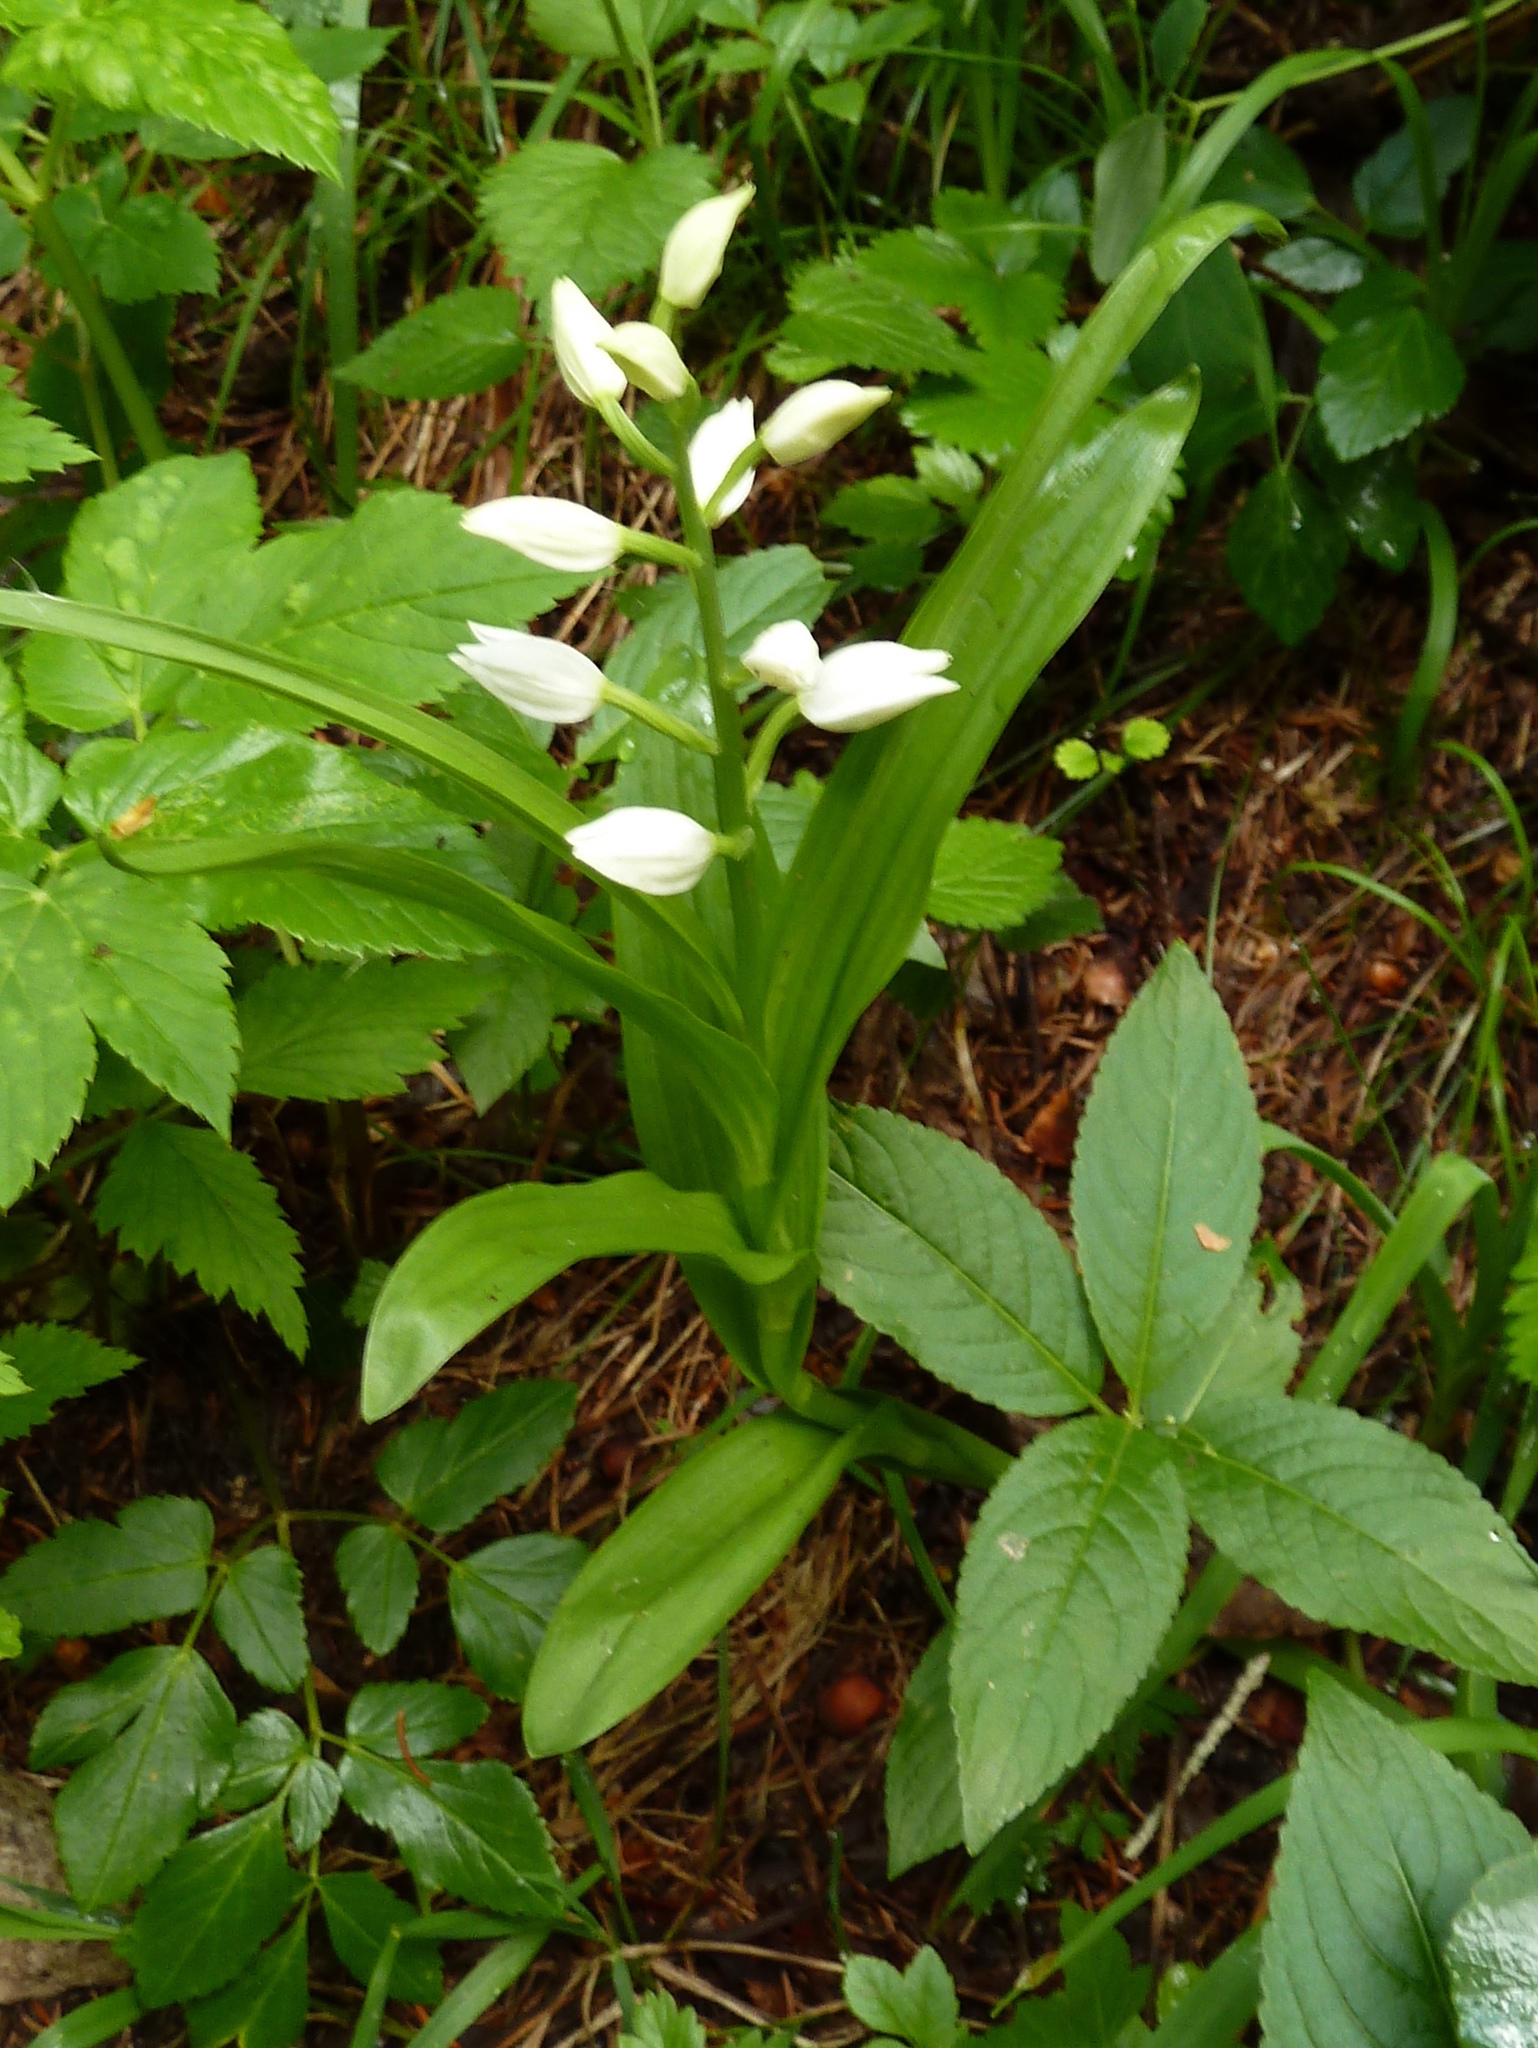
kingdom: Plantae
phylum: Tracheophyta
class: Liliopsida
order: Asparagales
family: Orchidaceae
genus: Cephalanthera
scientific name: Cephalanthera longifolia
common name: Narrow-leaved helleborine
